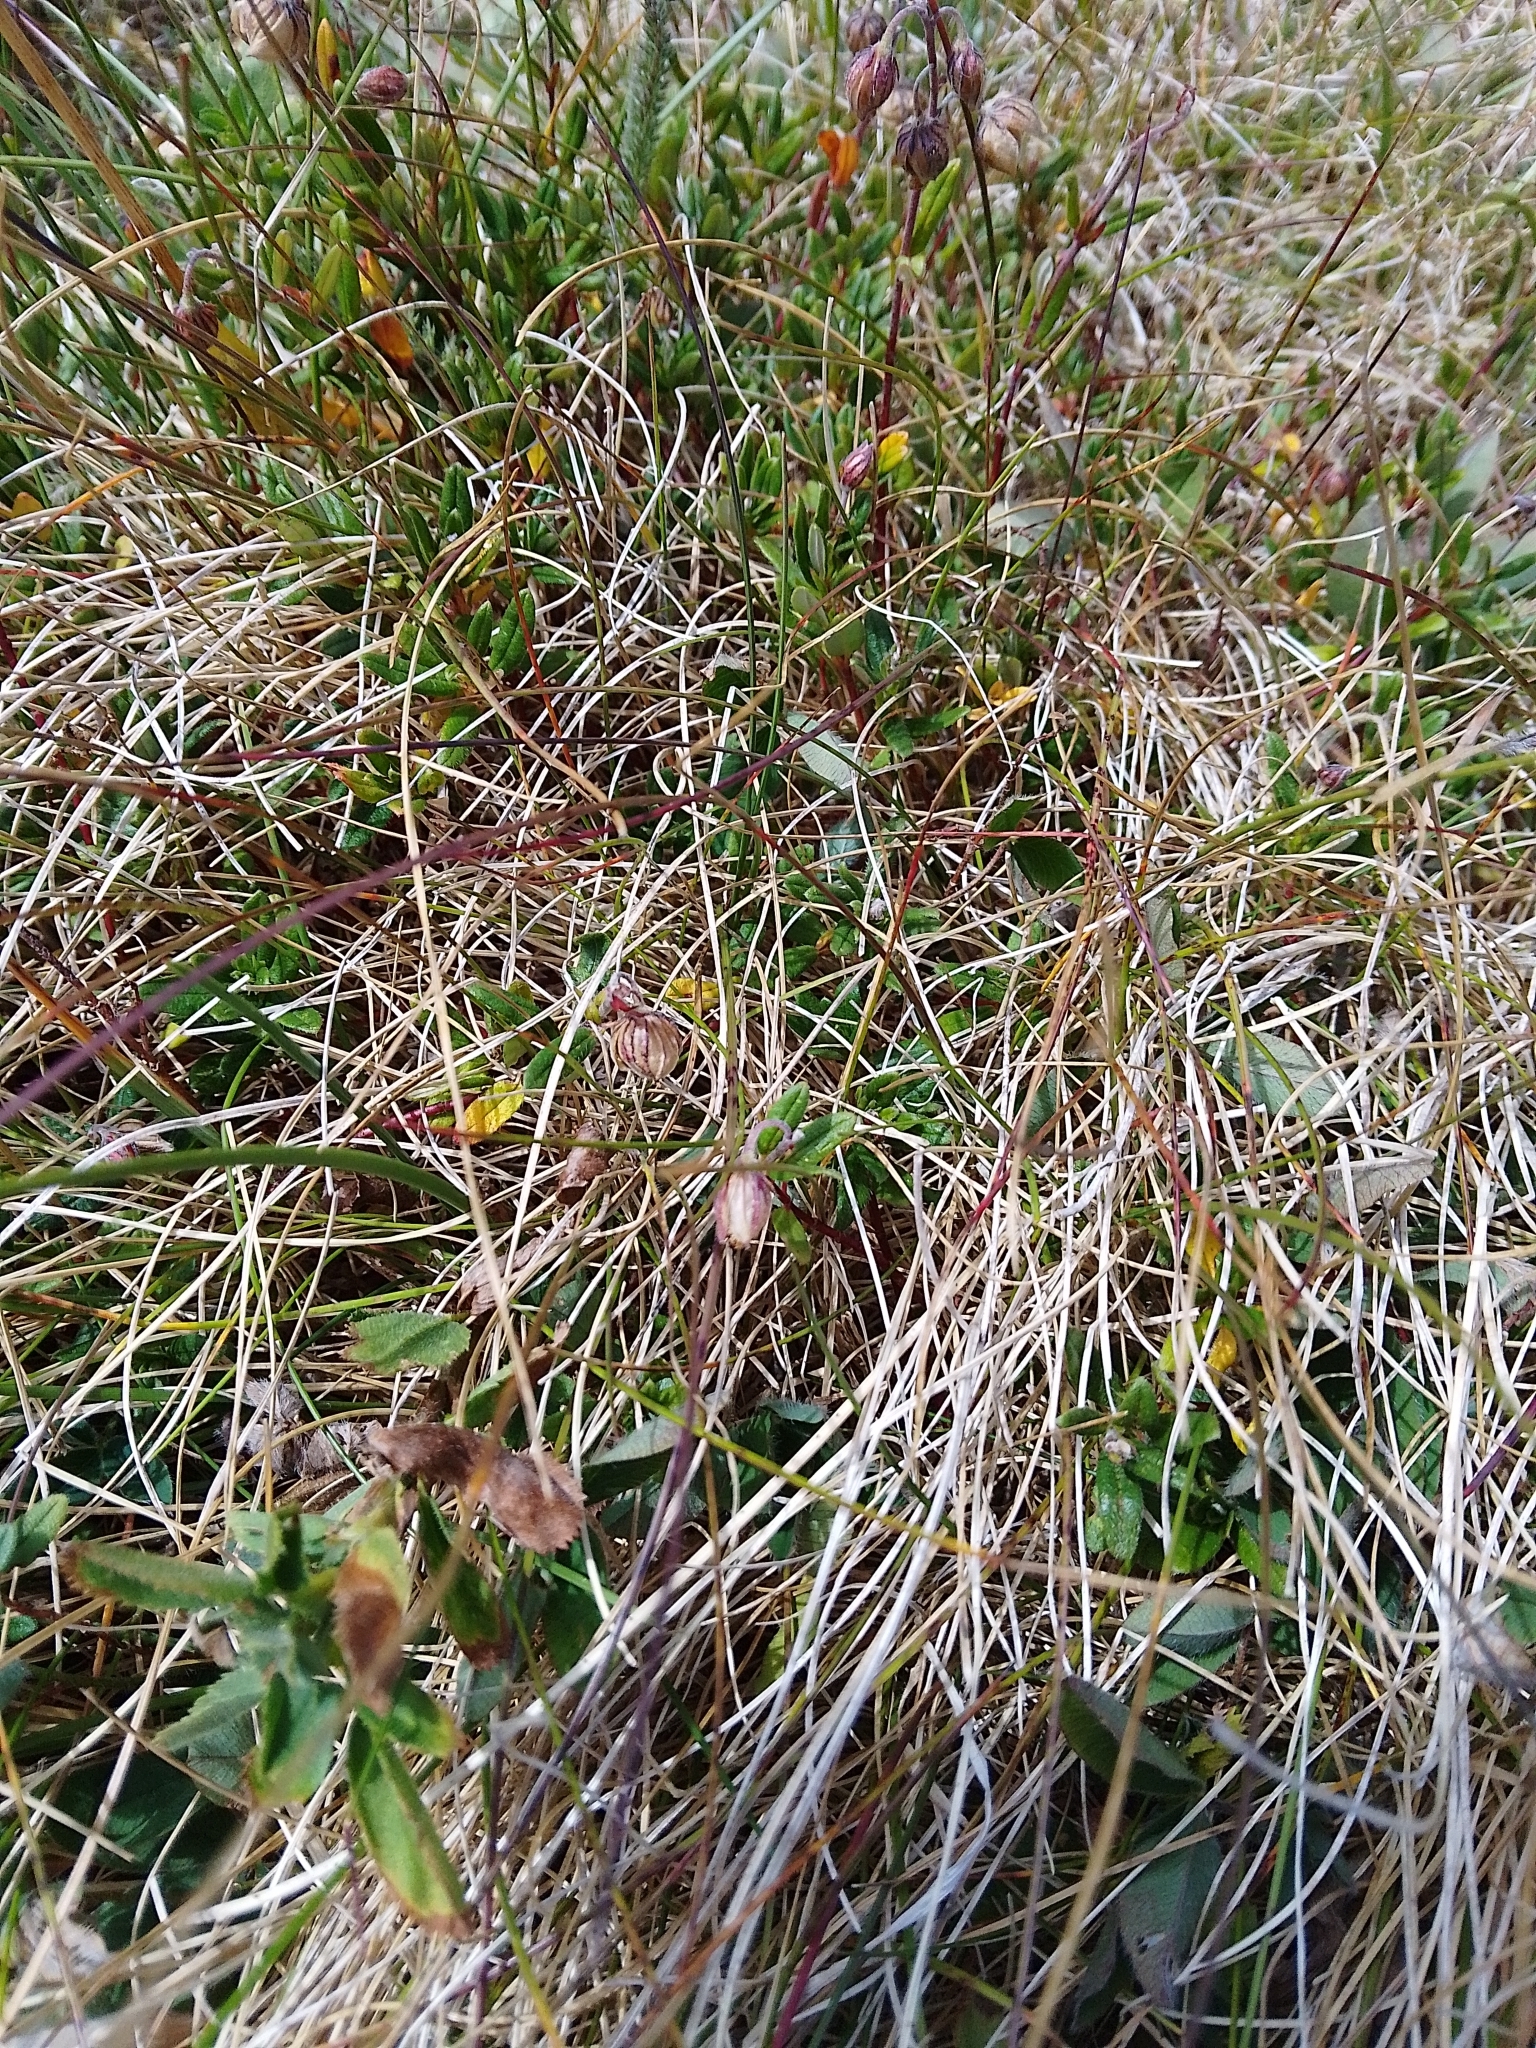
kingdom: Plantae
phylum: Tracheophyta
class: Magnoliopsida
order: Malvales
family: Cistaceae
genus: Helianthemum
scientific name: Helianthemum nummularium
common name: Common rock-rose
